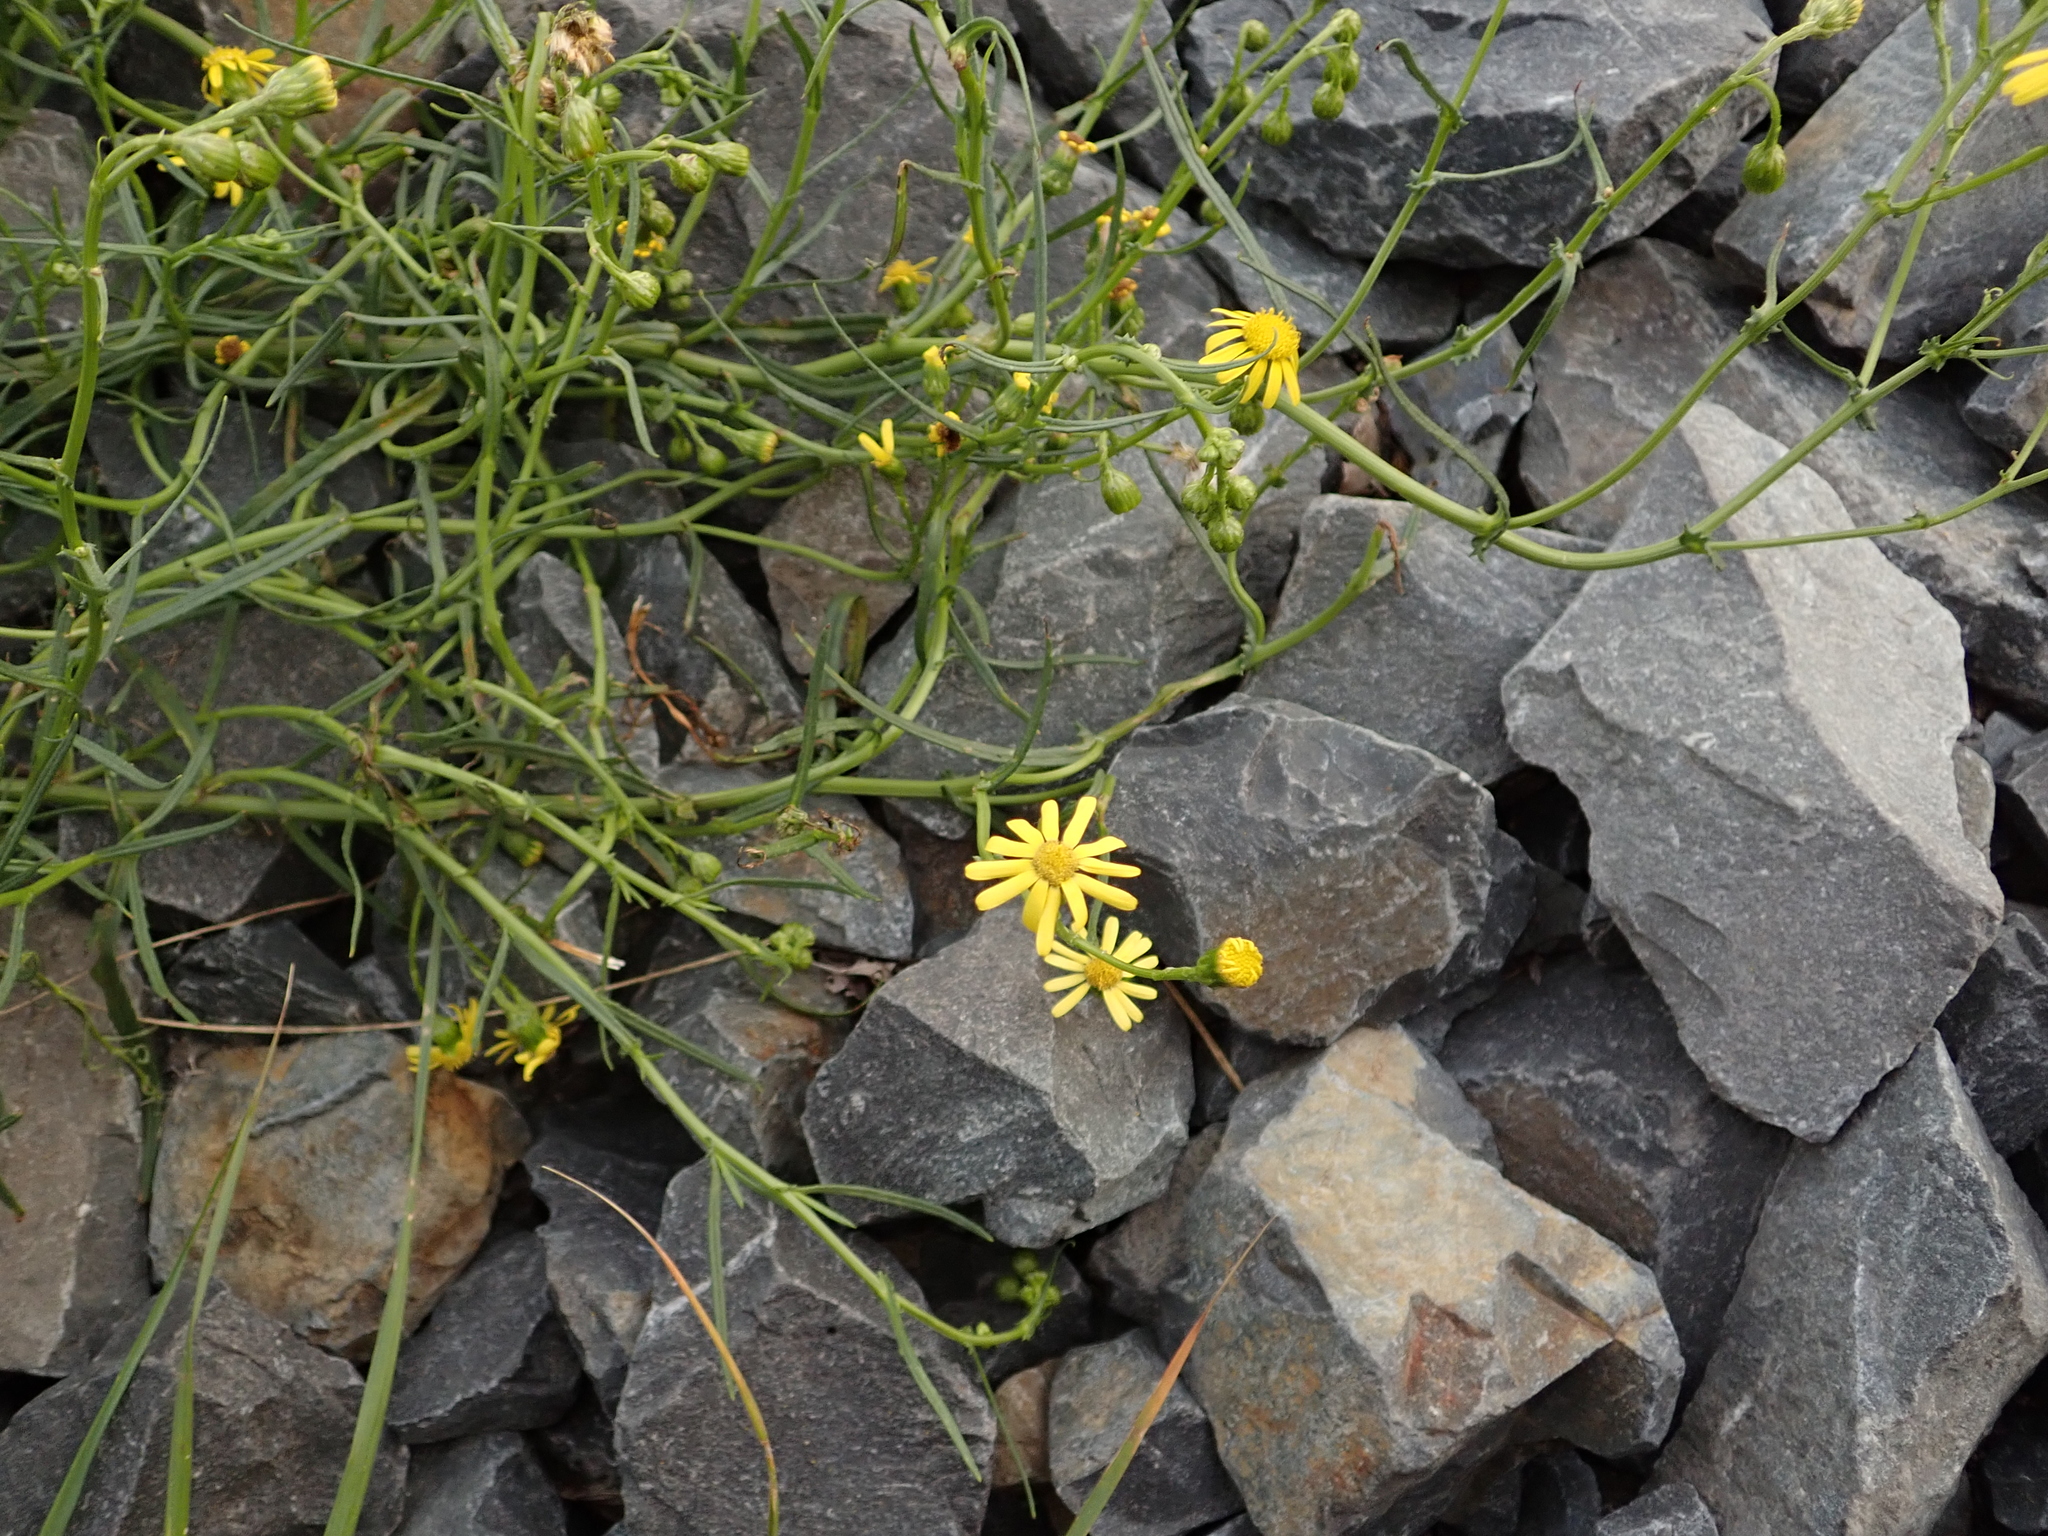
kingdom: Plantae
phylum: Tracheophyta
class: Magnoliopsida
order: Asterales
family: Asteraceae
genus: Senecio
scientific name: Senecio inaequidens
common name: Narrow-leaved ragwort
